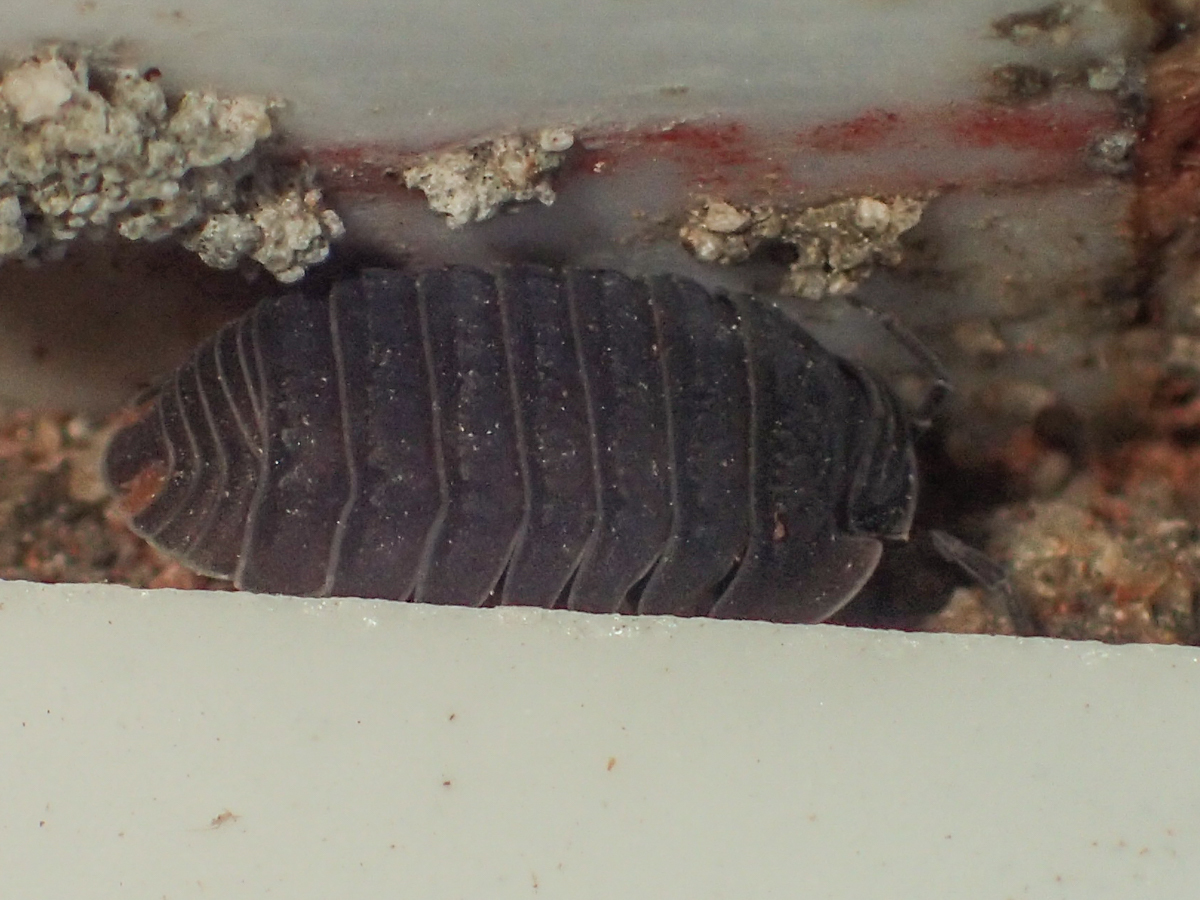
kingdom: Animalia
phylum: Arthropoda
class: Malacostraca
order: Isopoda
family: Armadillidae
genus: Cubaris
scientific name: Cubaris murina
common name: Pillbug
